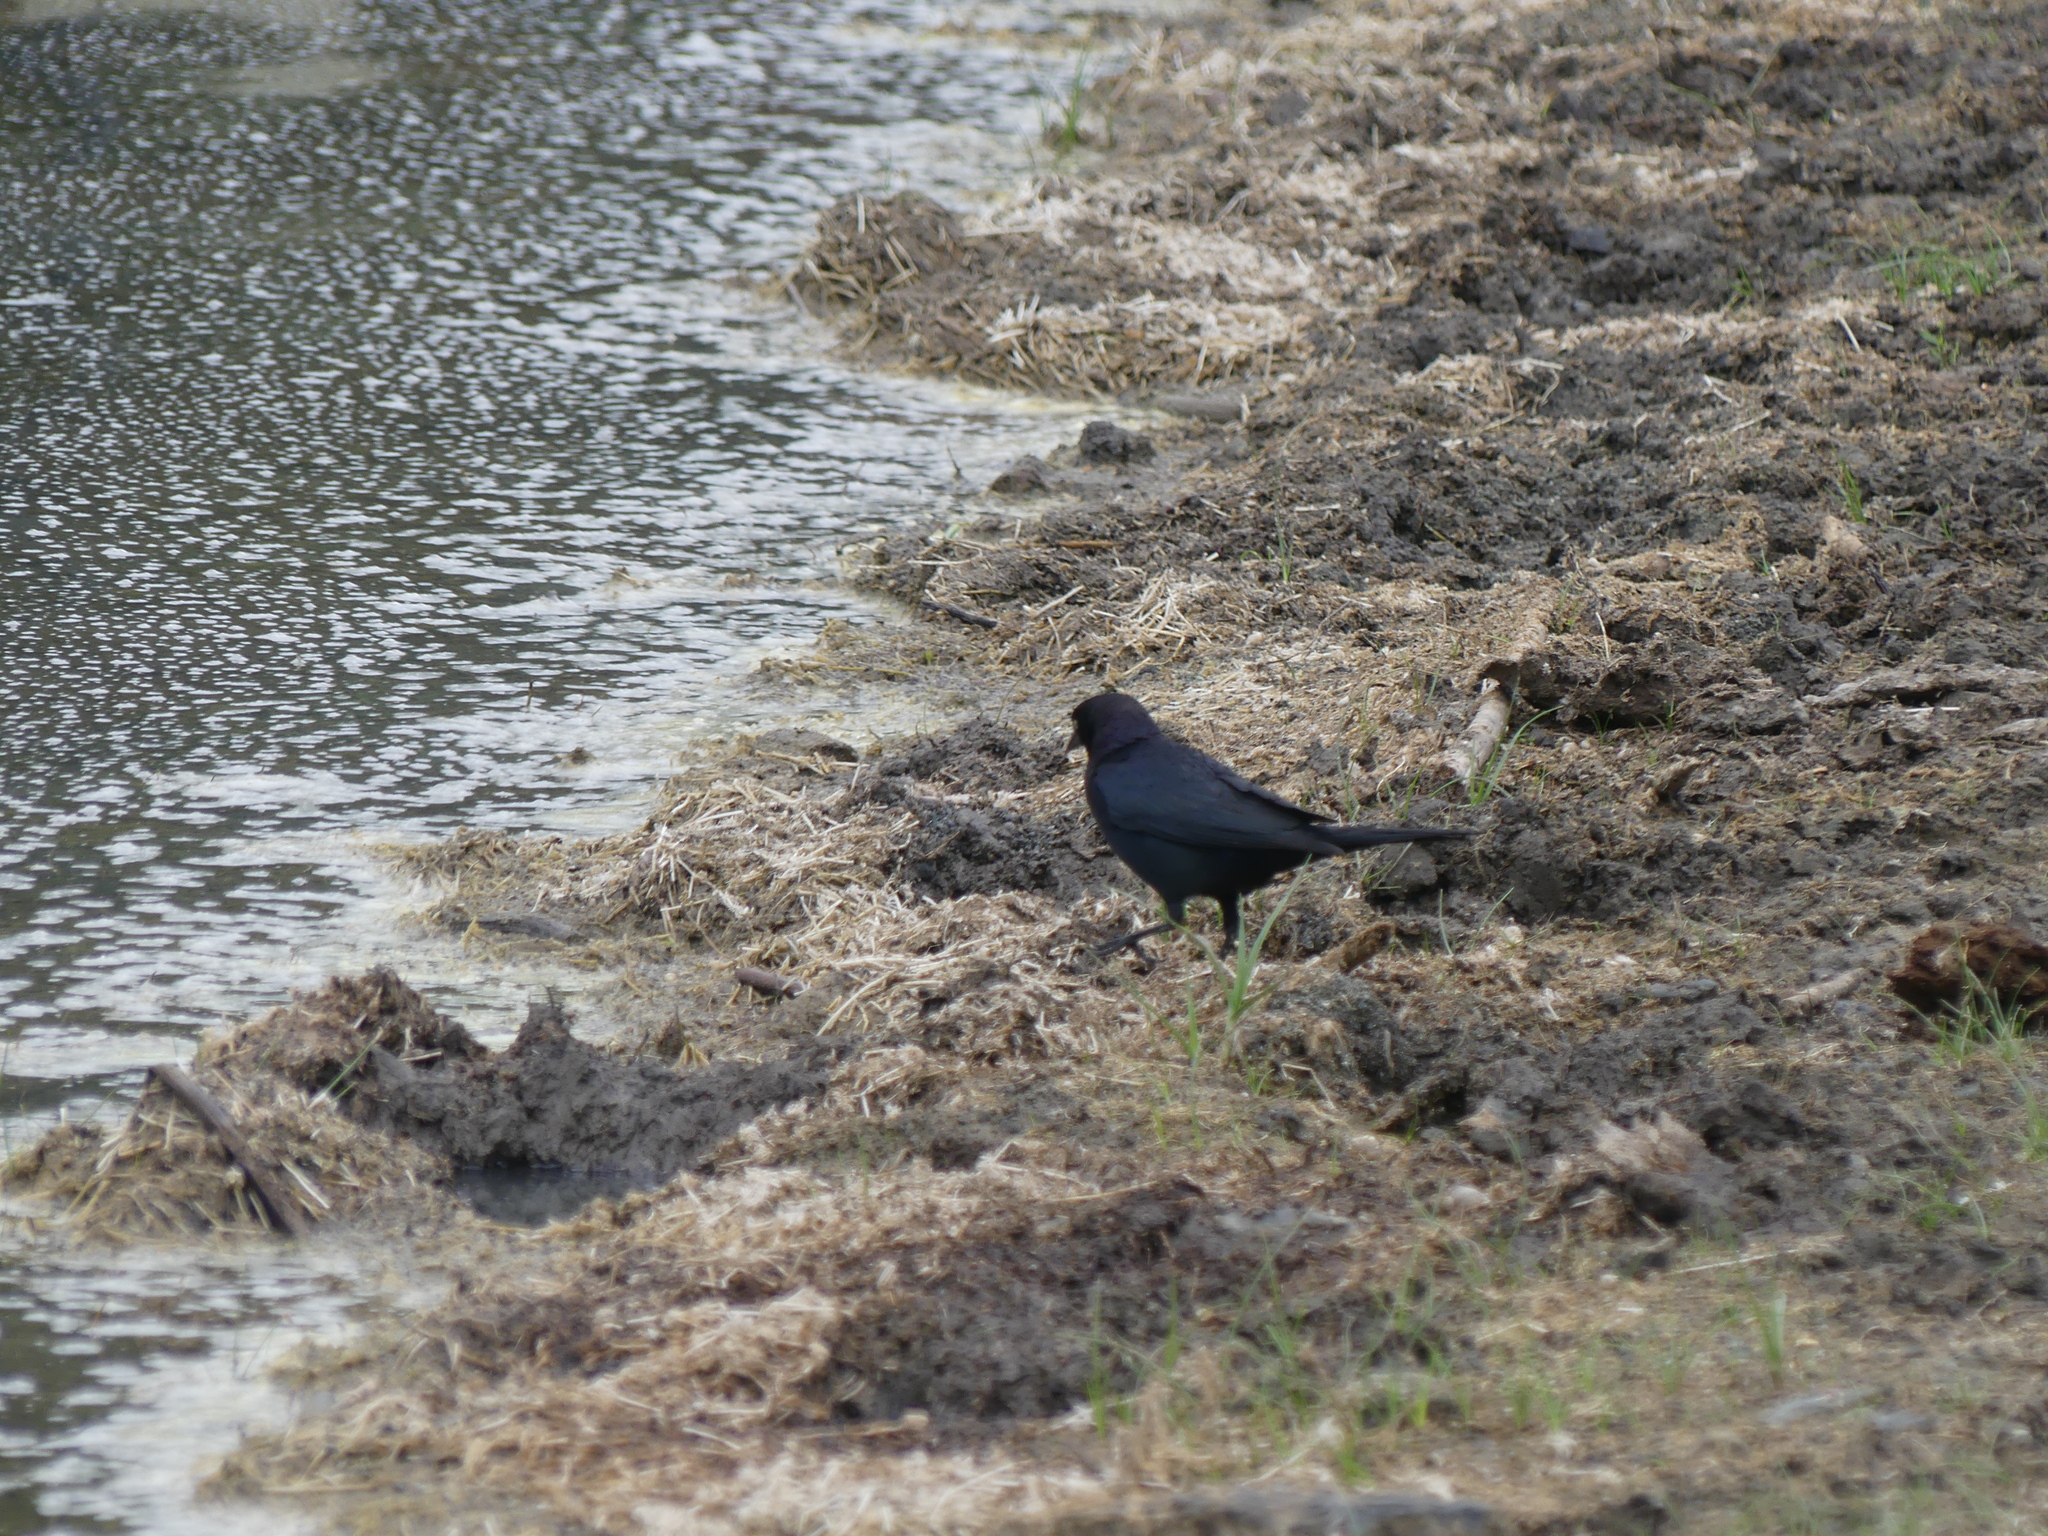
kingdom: Animalia
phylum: Chordata
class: Aves
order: Passeriformes
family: Icteridae
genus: Euphagus
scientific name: Euphagus cyanocephalus
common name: Brewer's blackbird
